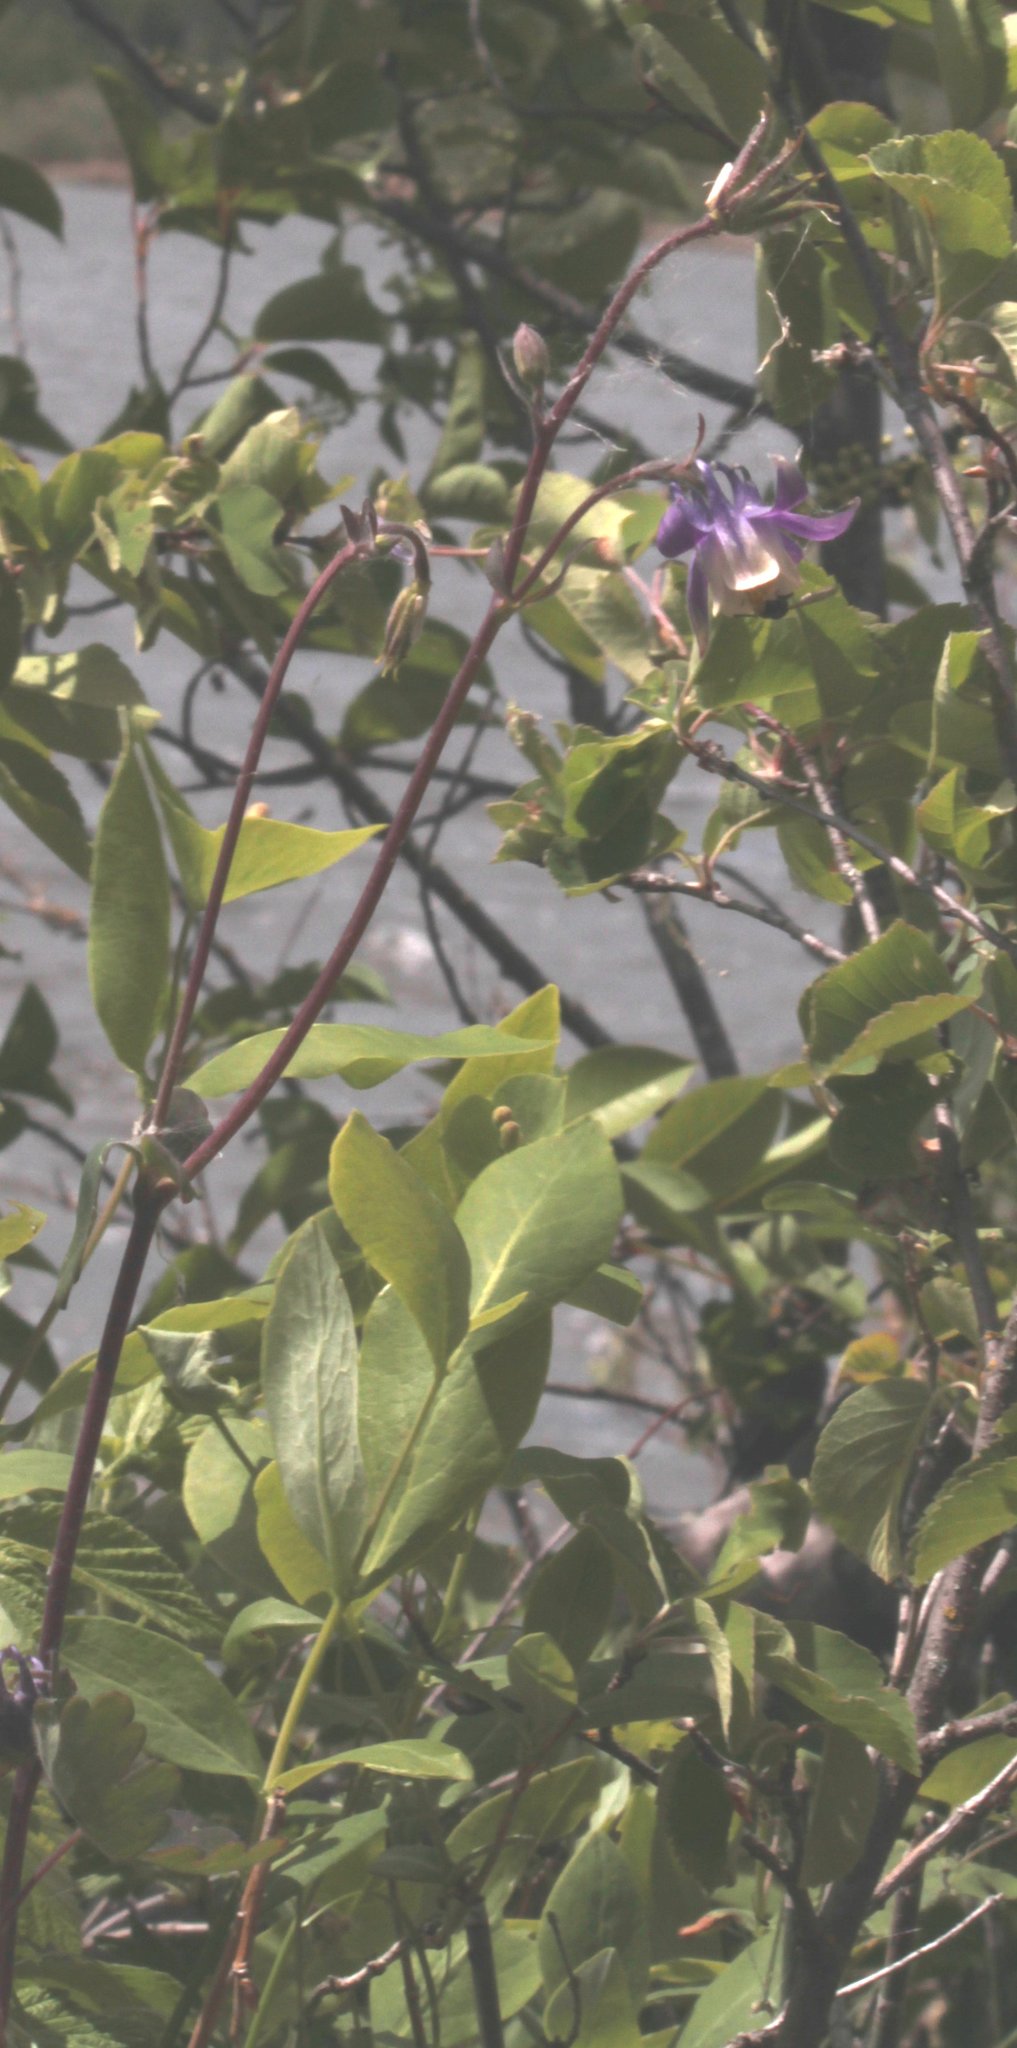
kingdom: Plantae
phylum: Tracheophyta
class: Magnoliopsida
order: Ranunculales
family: Ranunculaceae
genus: Aquilegia
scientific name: Aquilegia brevistyla
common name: Yukon columbine
